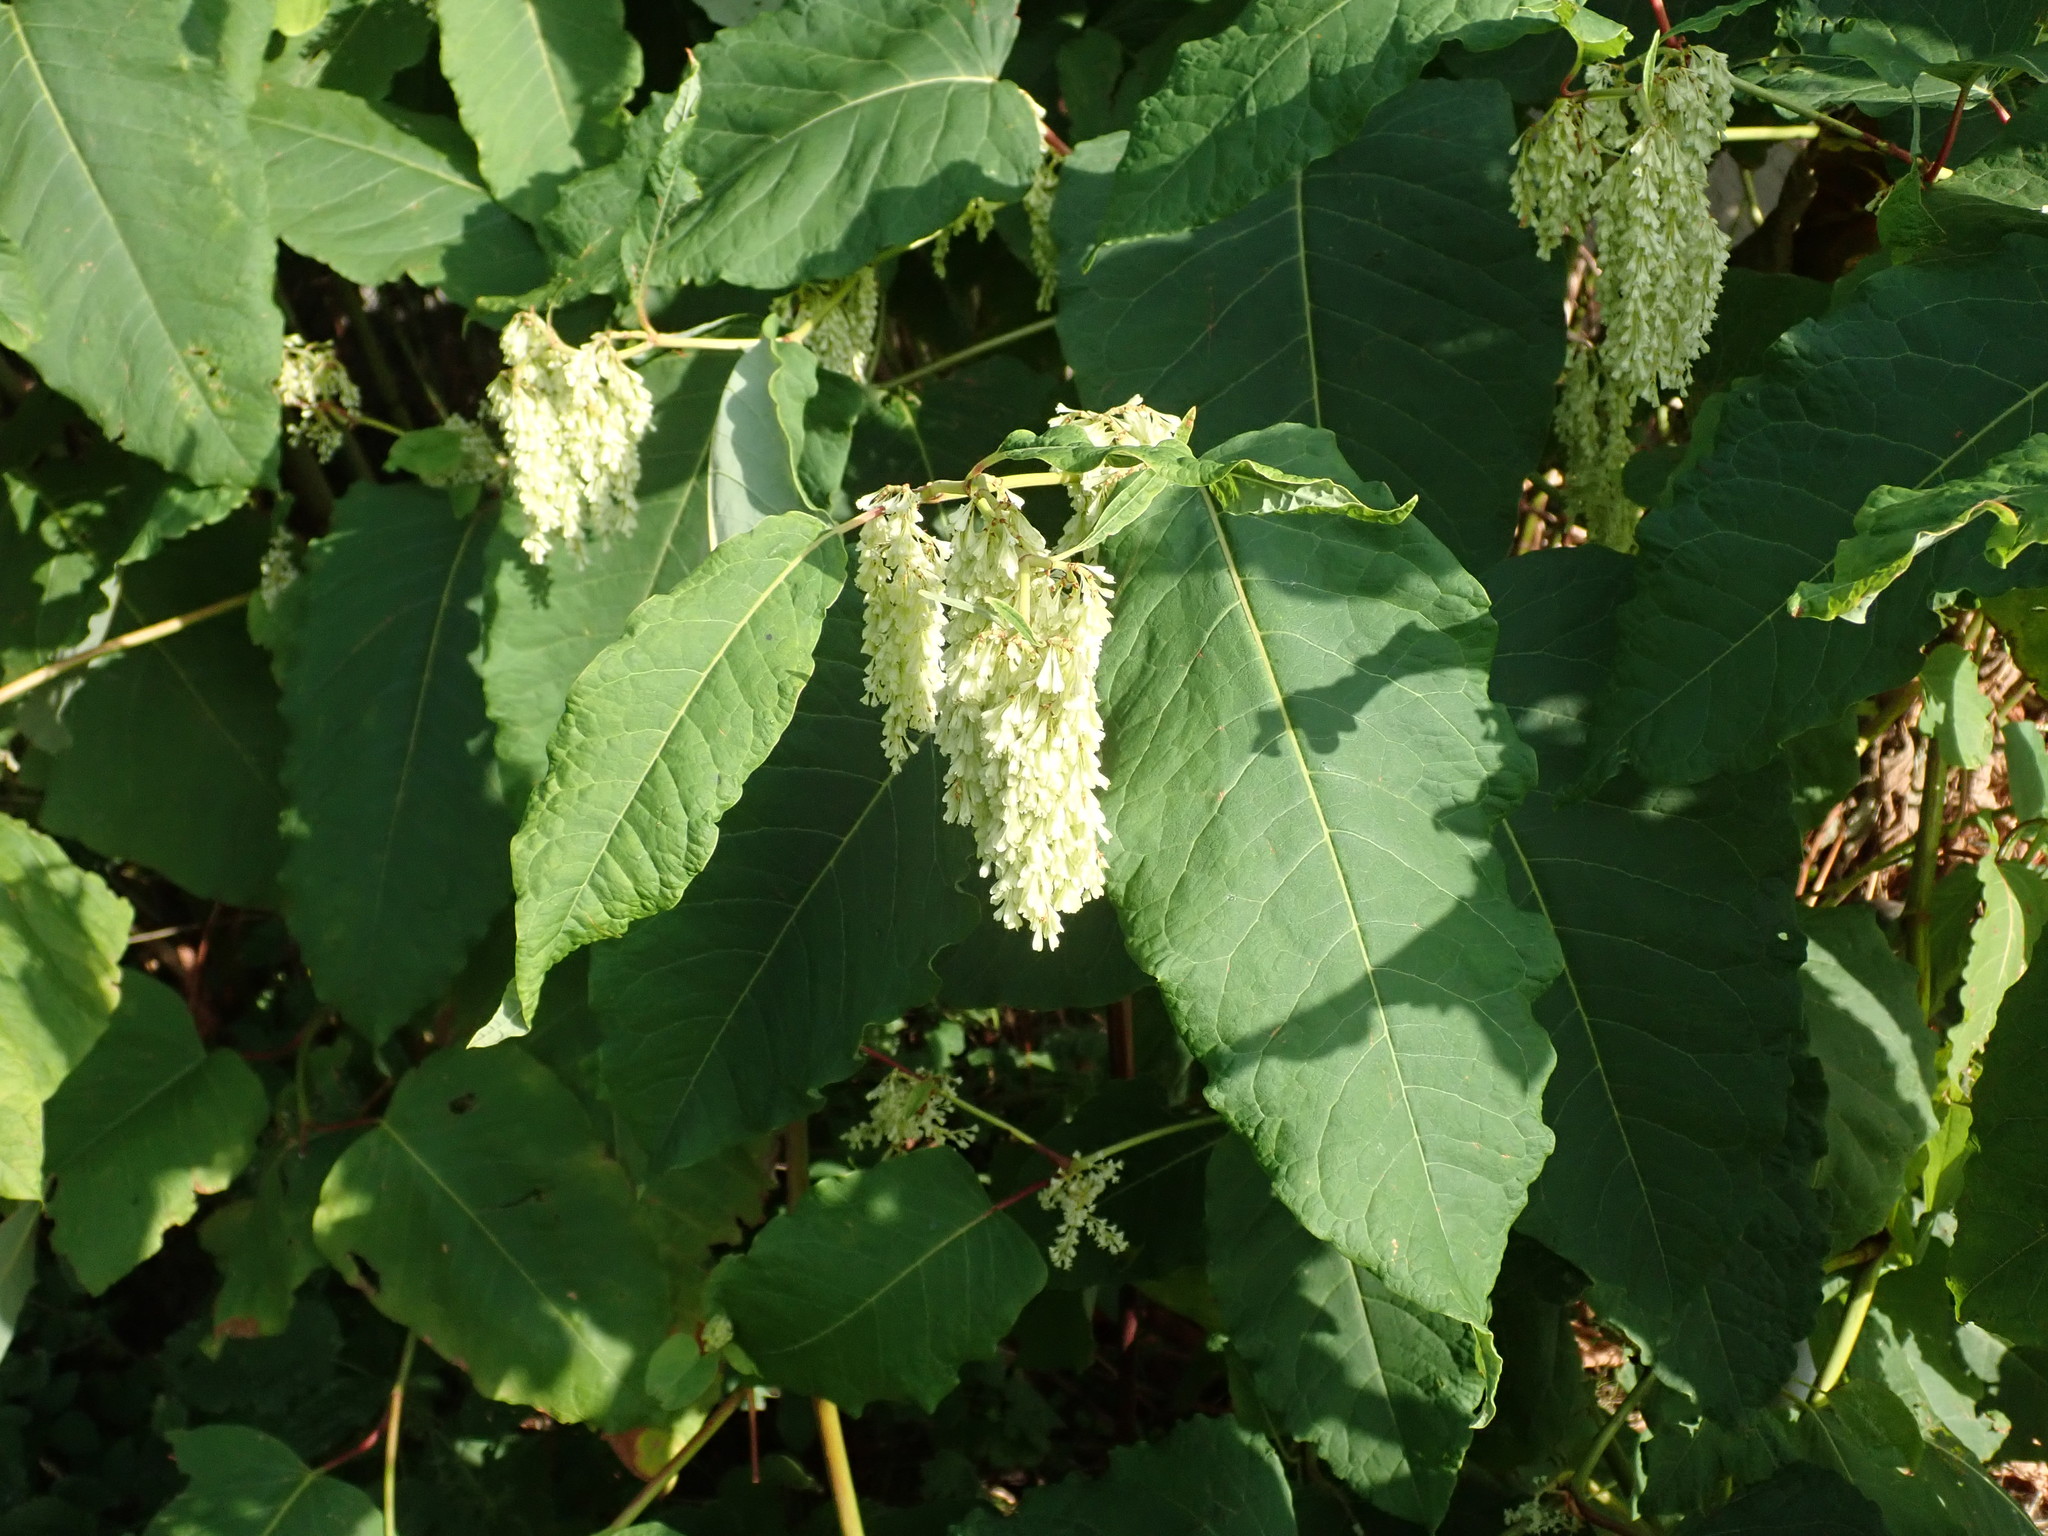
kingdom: Plantae
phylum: Tracheophyta
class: Magnoliopsida
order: Caryophyllales
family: Polygonaceae
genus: Reynoutria
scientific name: Reynoutria sachalinensis
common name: Giant knotweed
